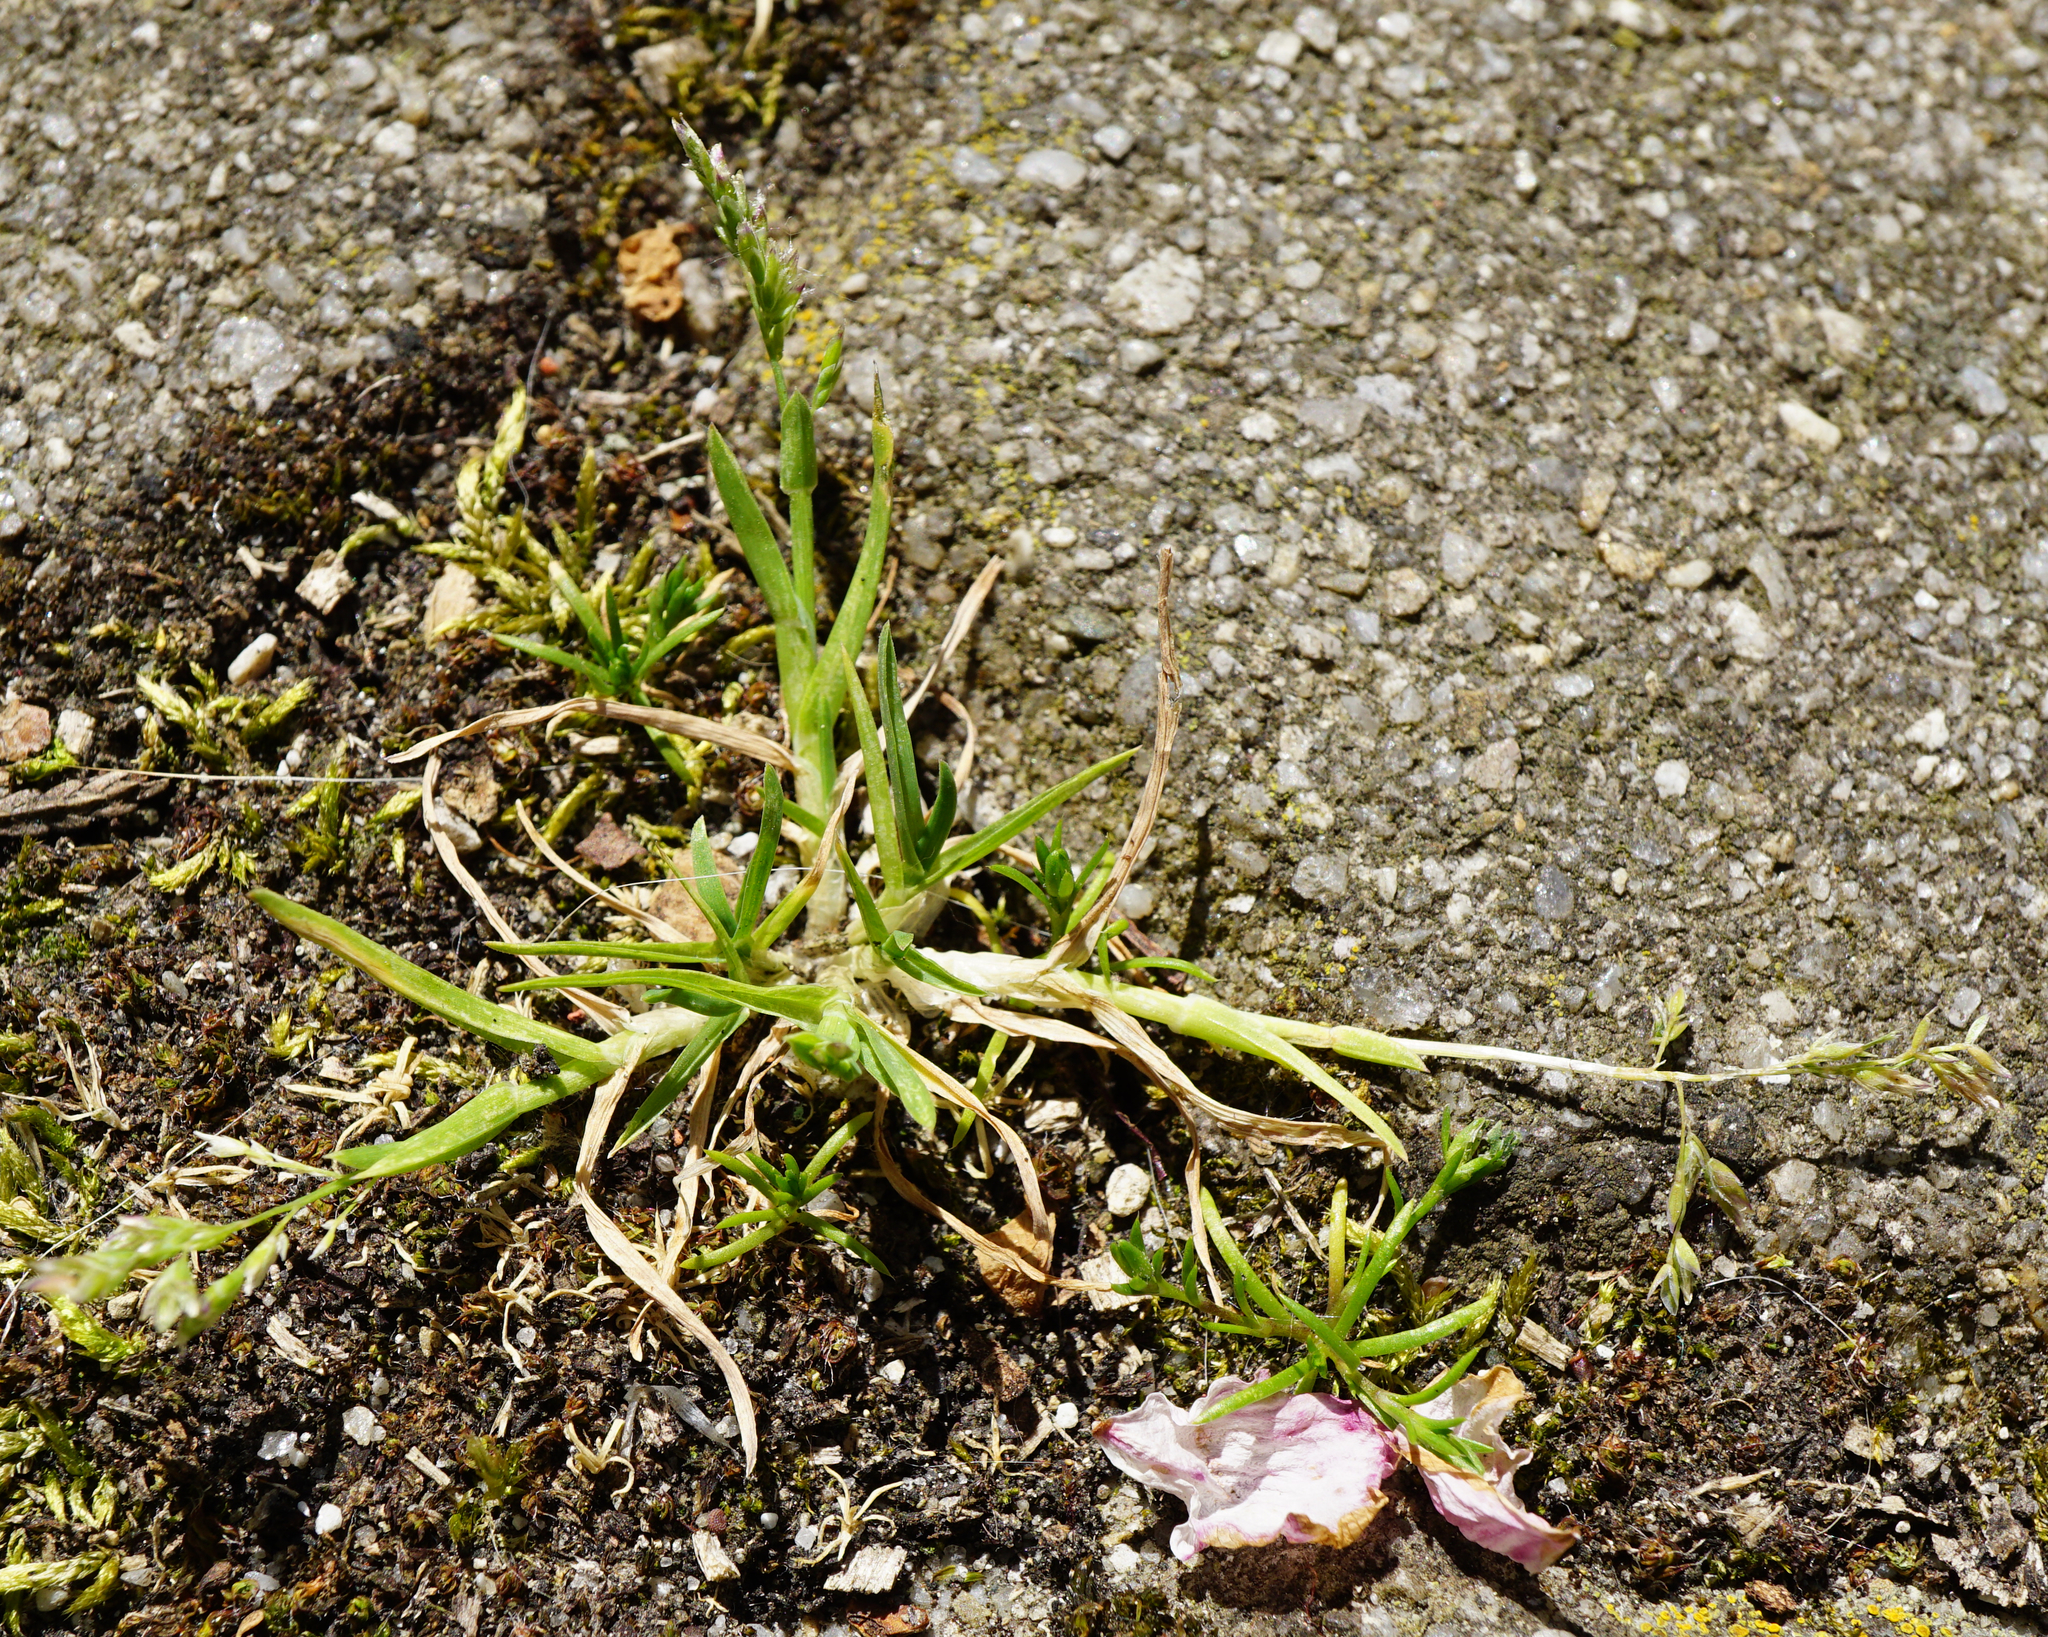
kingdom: Plantae
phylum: Tracheophyta
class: Liliopsida
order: Poales
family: Poaceae
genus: Poa
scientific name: Poa annua
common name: Annual bluegrass
